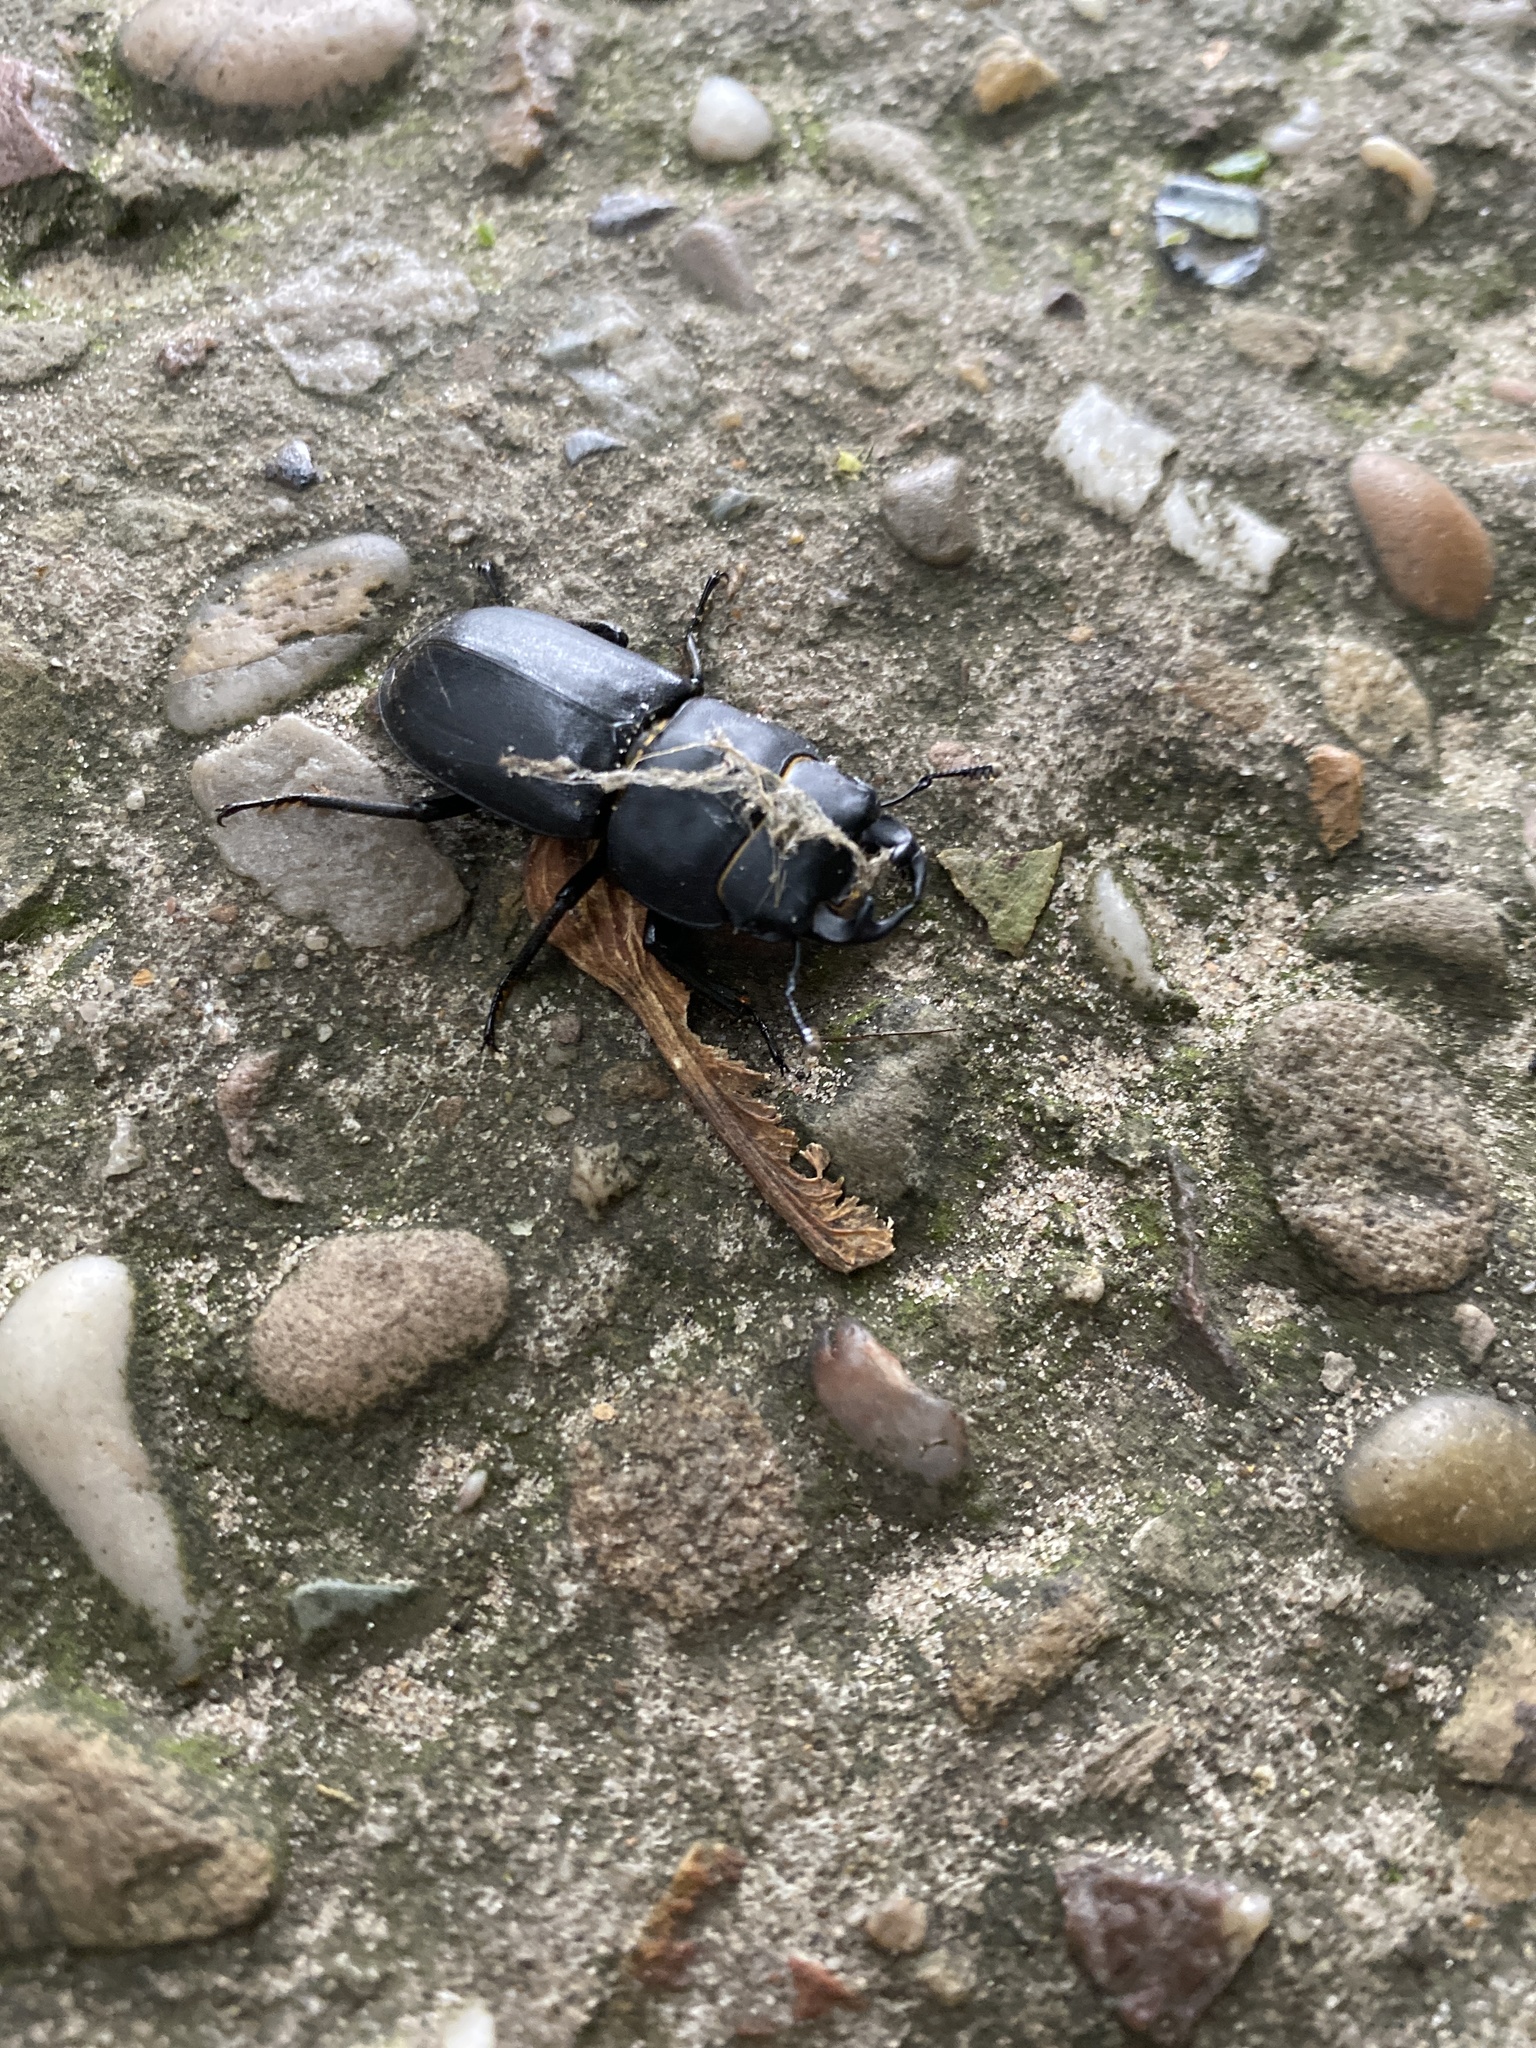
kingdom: Animalia
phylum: Arthropoda
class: Insecta
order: Coleoptera
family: Lucanidae
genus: Dorcus
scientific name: Dorcus parallelipipedus
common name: Lesser stag beetle
